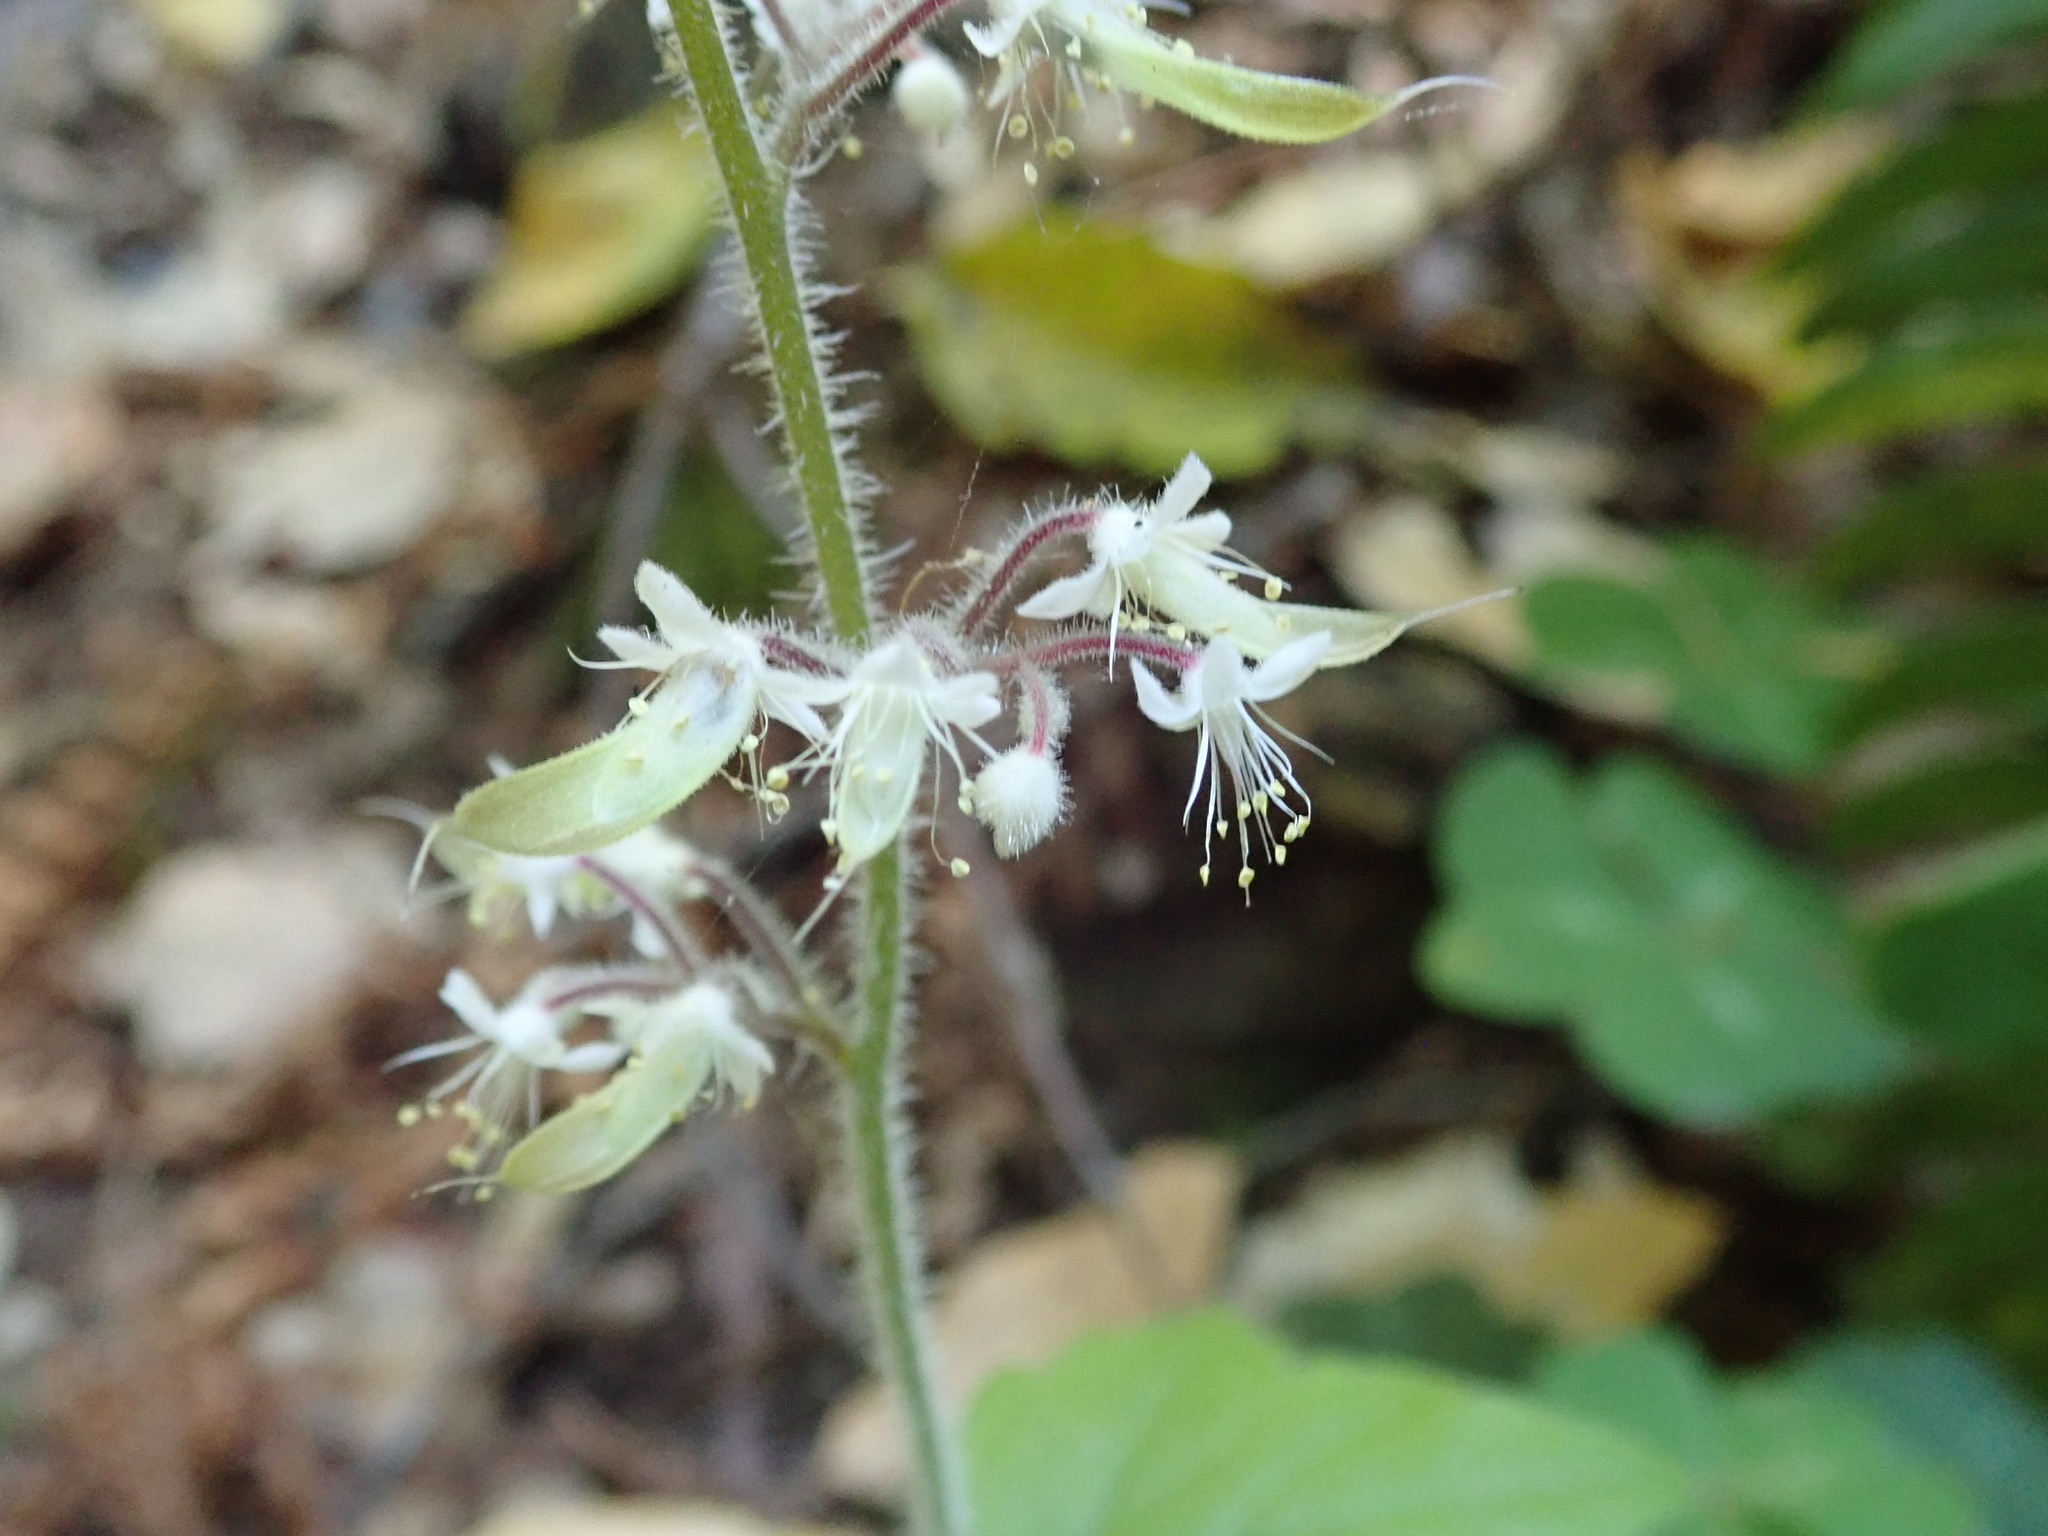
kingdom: Plantae
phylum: Tracheophyta
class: Magnoliopsida
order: Saxifragales
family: Saxifragaceae
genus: Tiarella
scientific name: Tiarella trifoliata
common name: Sugar-scoop
